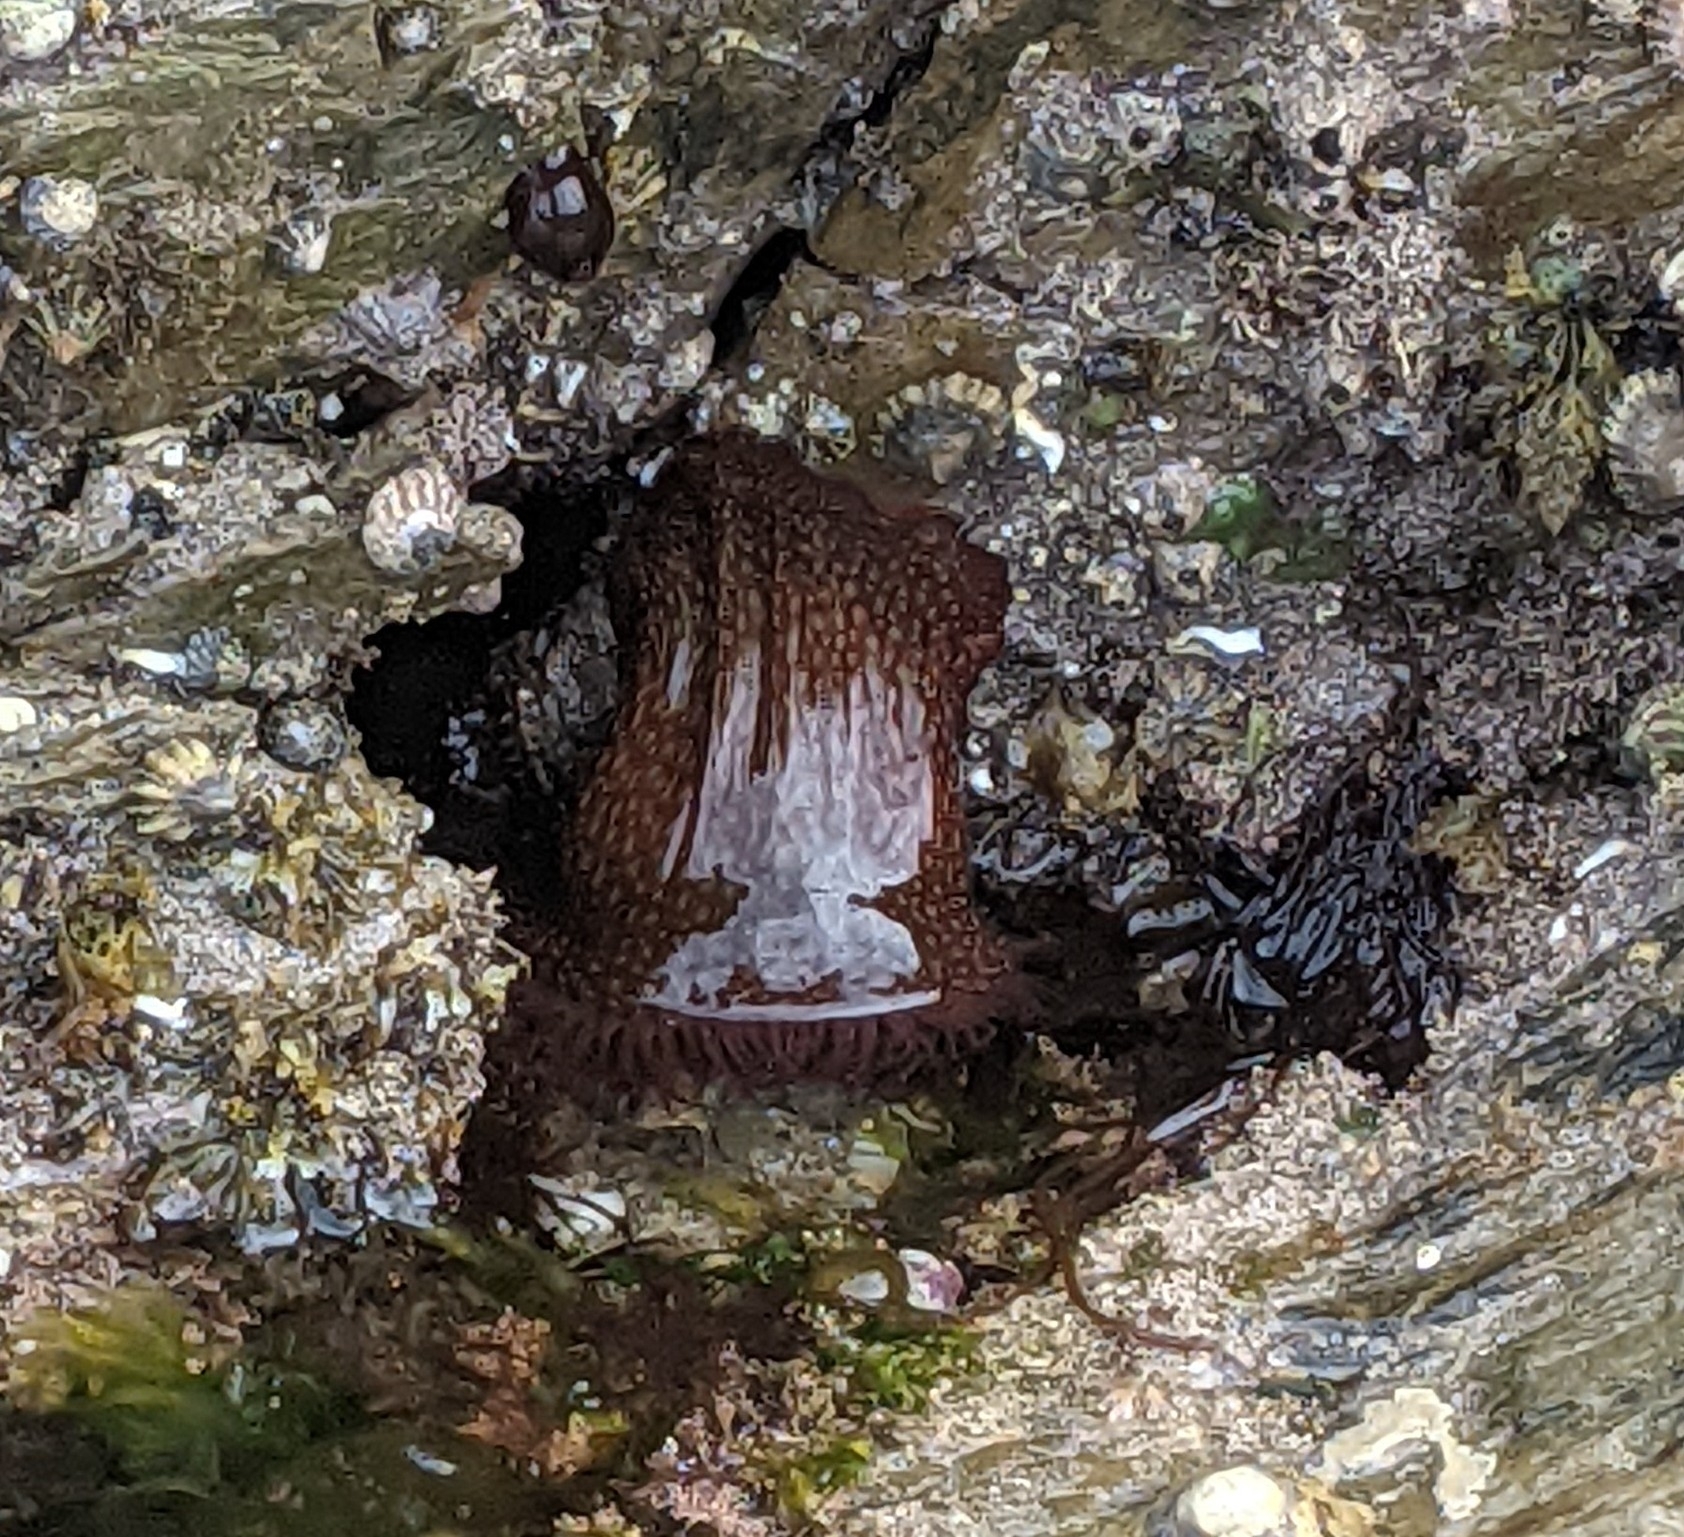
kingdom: Animalia
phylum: Cnidaria
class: Anthozoa
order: Actiniaria
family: Actiniidae
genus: Actinia
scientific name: Actinia fragacea
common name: Strawberry anemone
